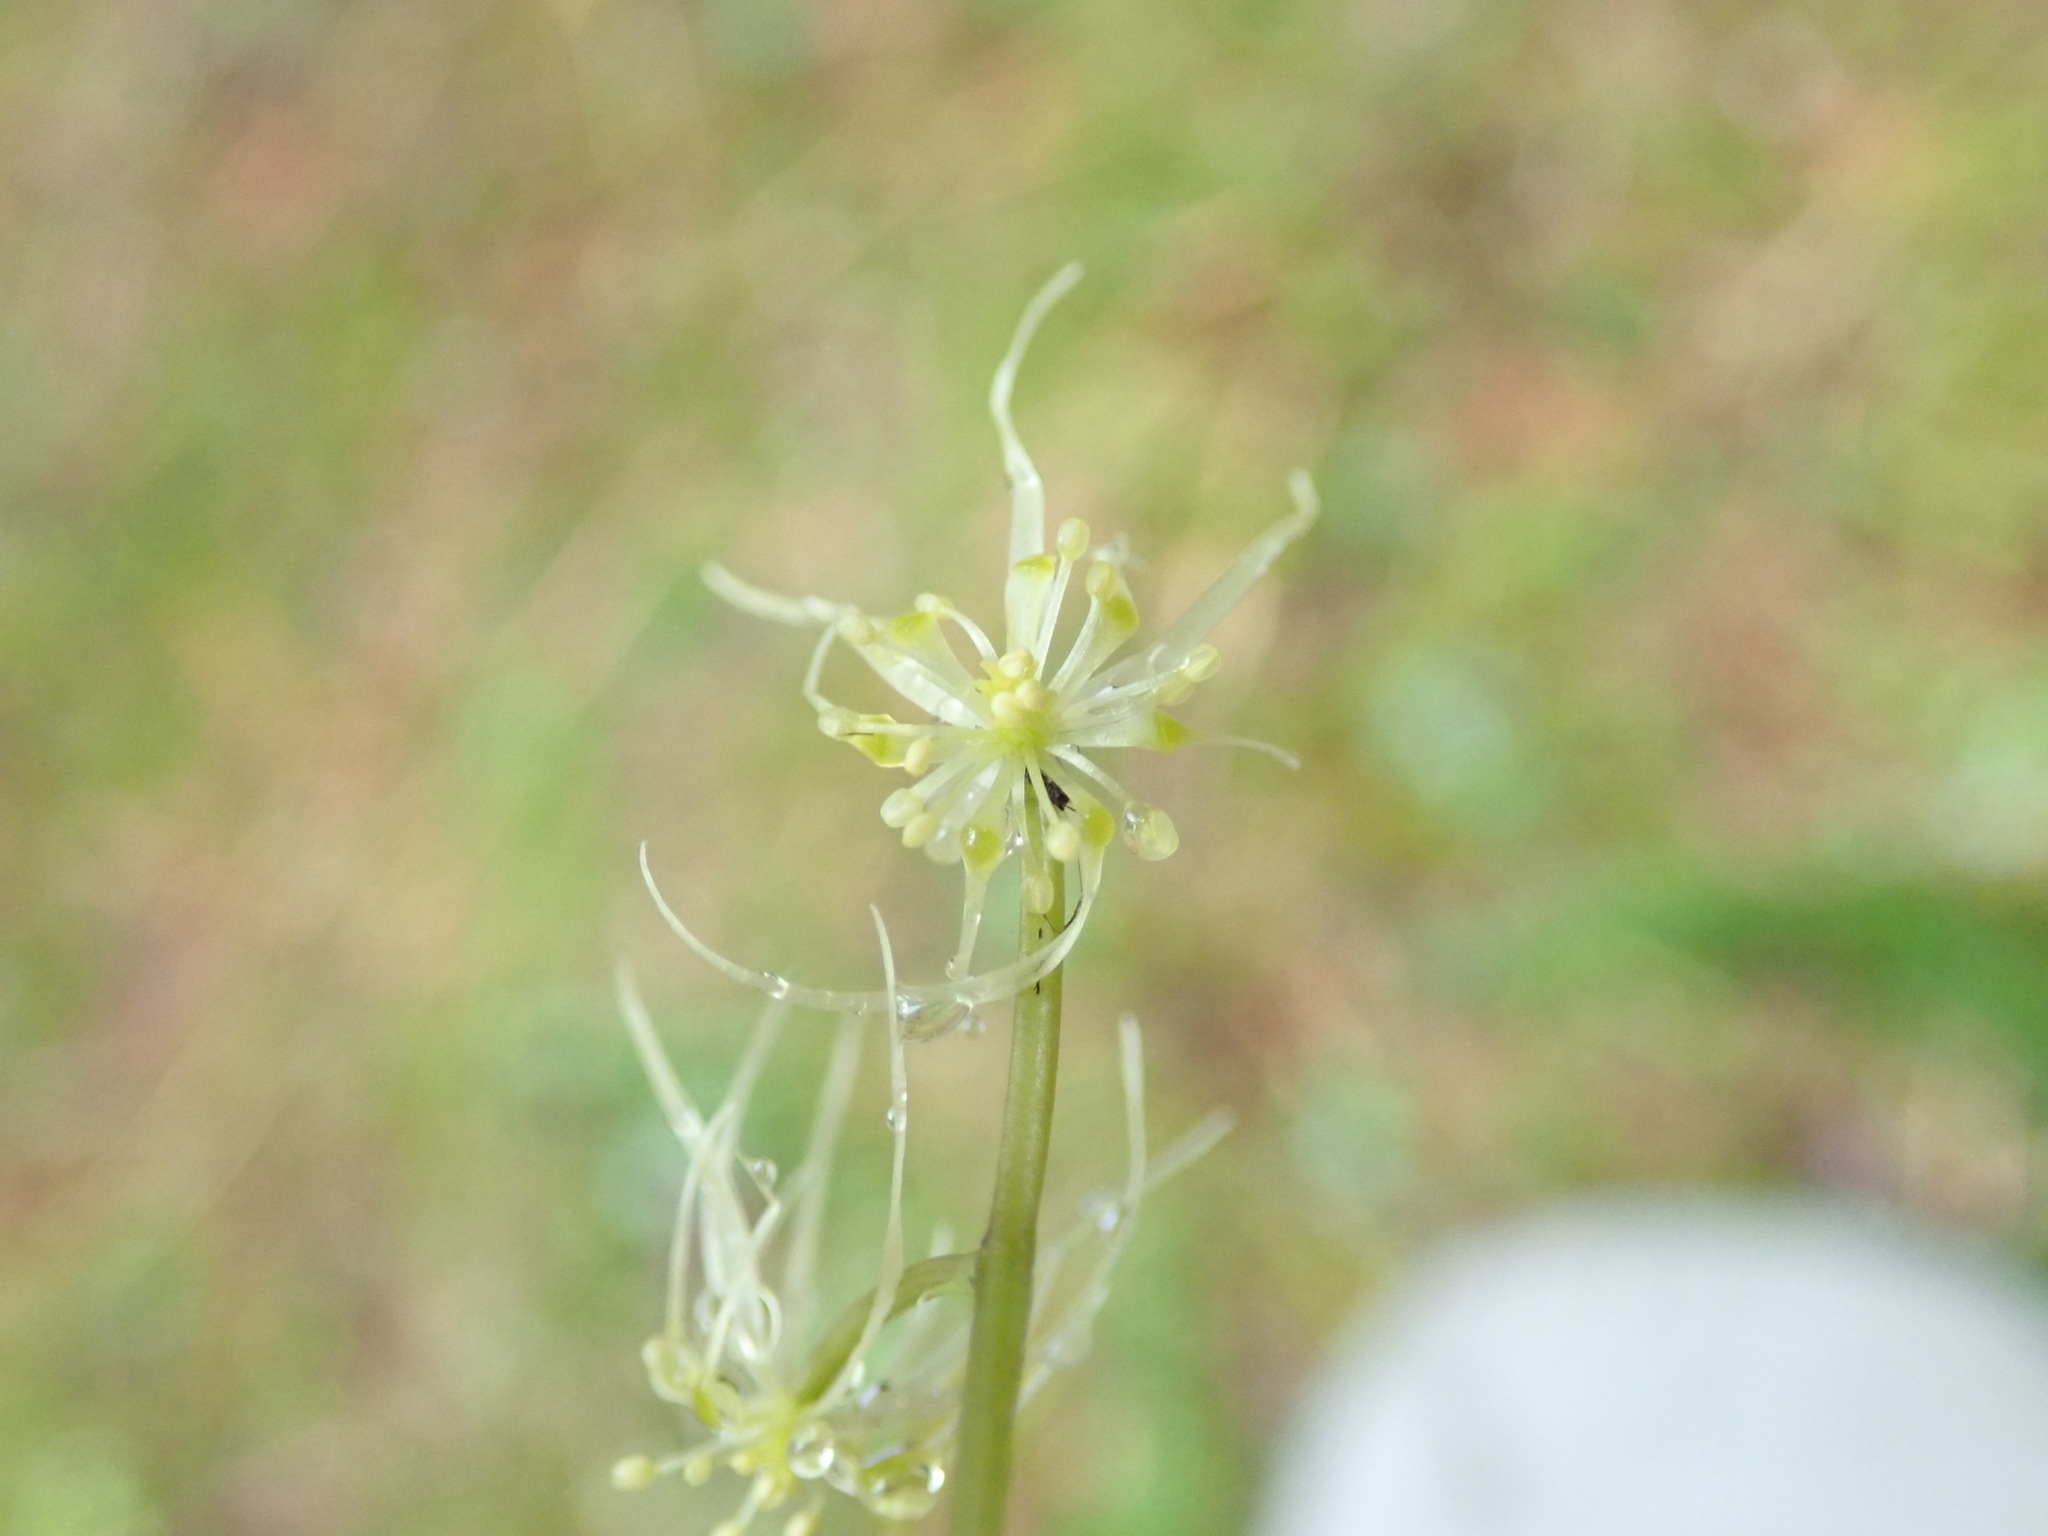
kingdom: Plantae
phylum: Tracheophyta
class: Magnoliopsida
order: Ranunculales
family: Ranunculaceae
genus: Coptis
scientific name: Coptis aspleniifolia
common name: Fern-leaved goldthread
